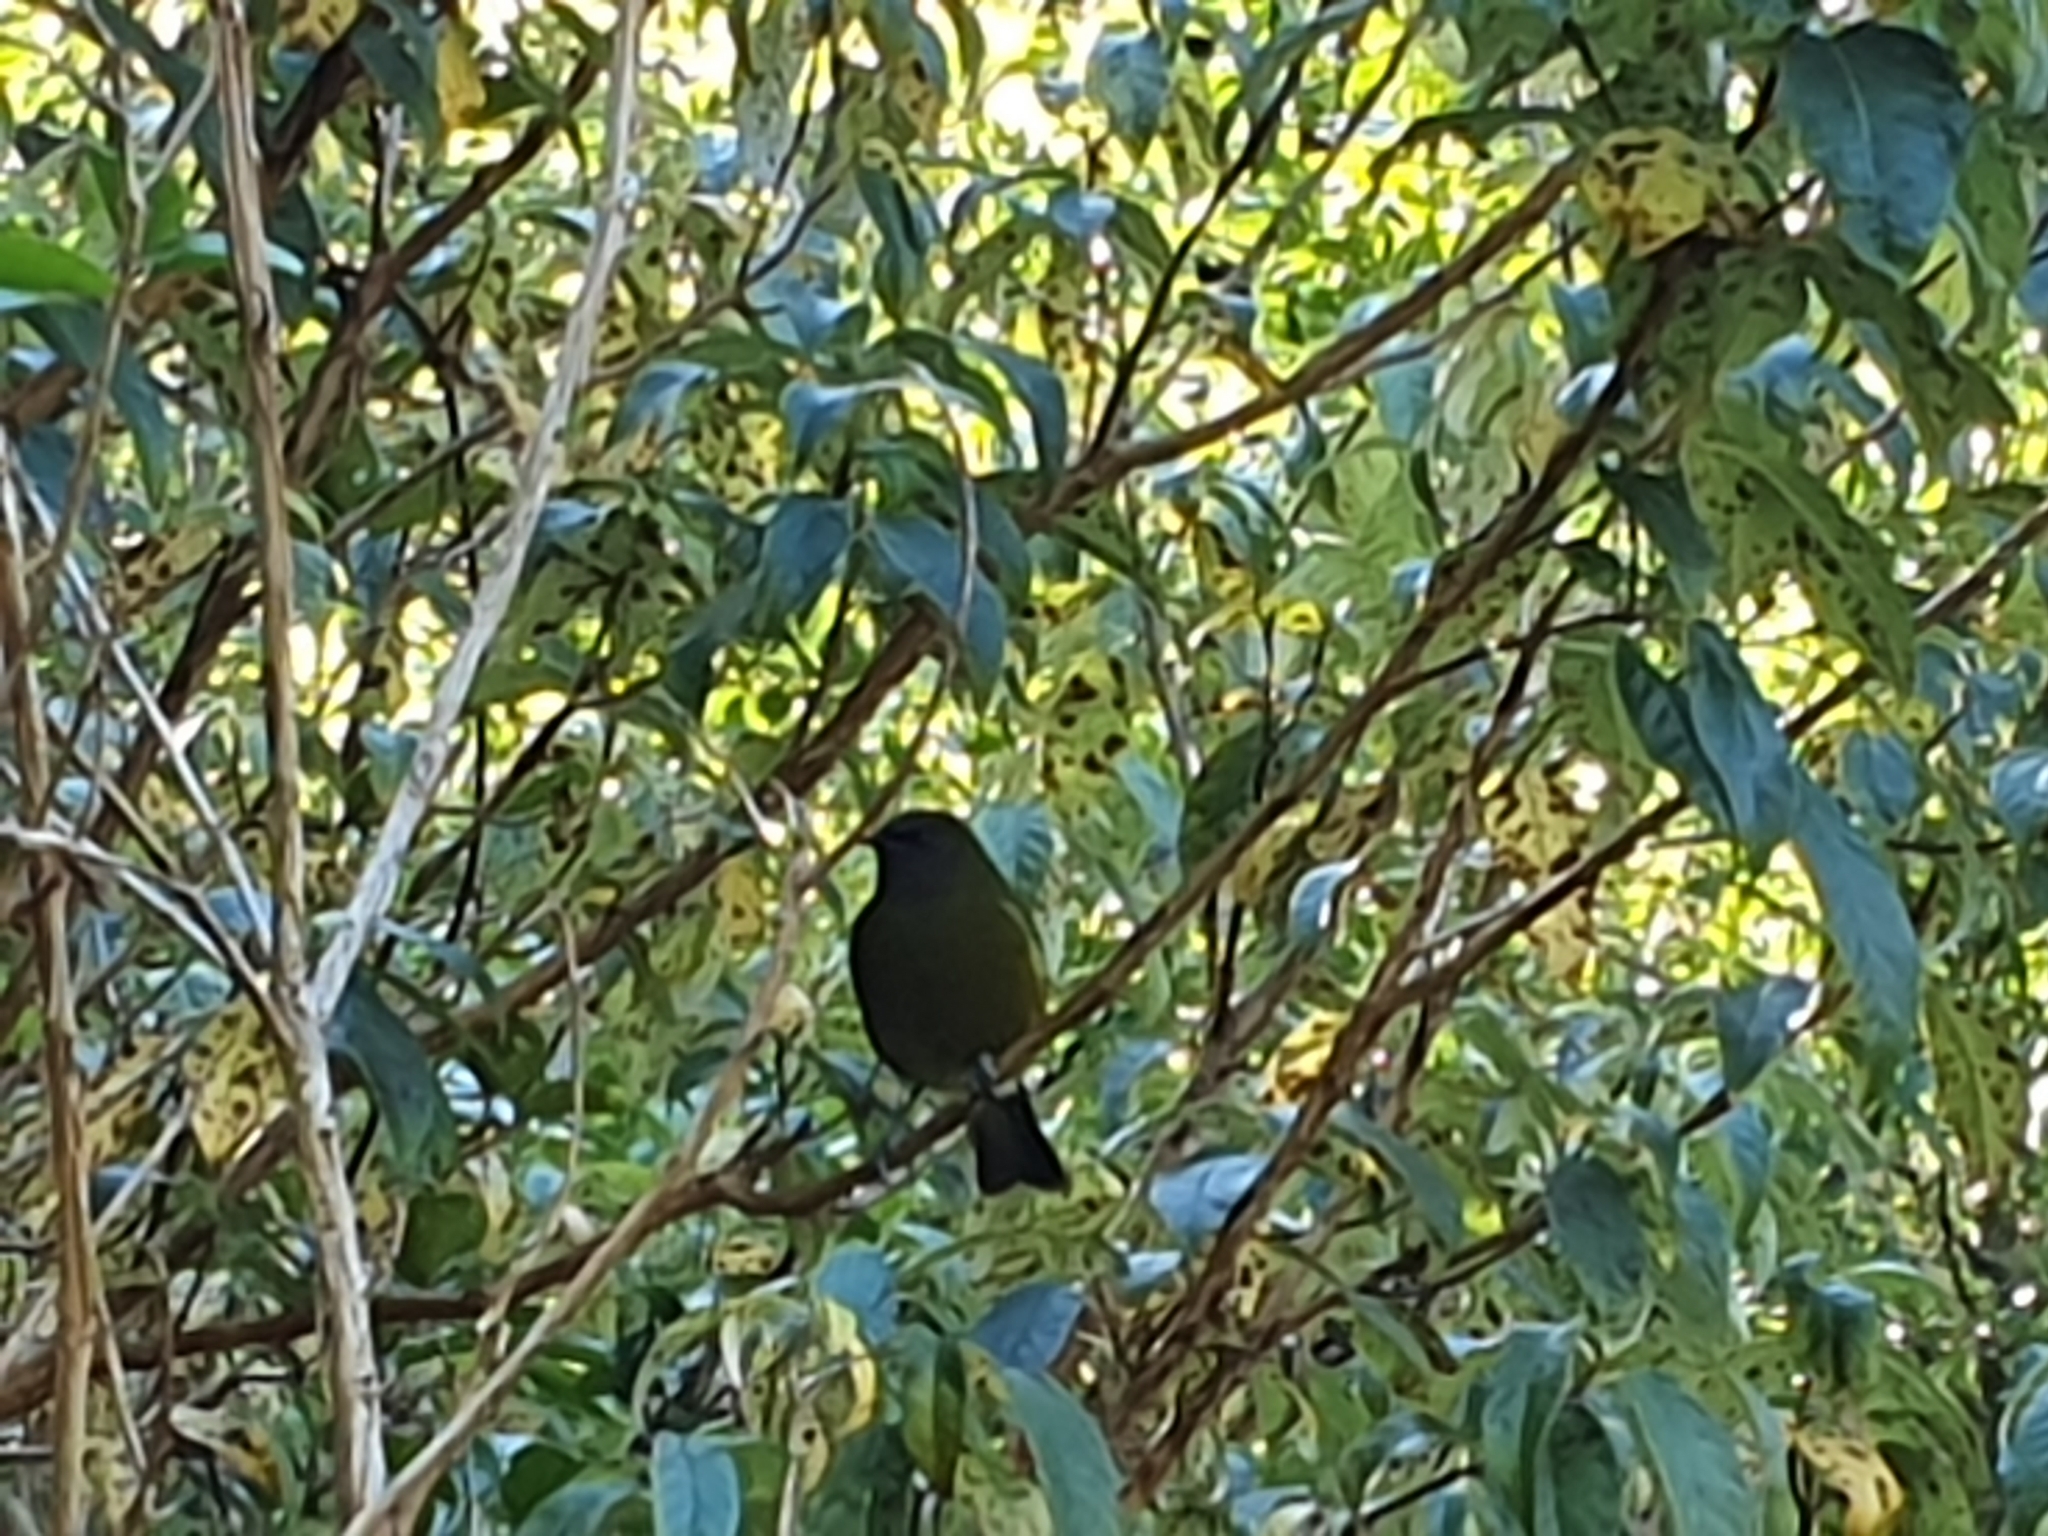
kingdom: Animalia
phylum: Chordata
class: Aves
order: Passeriformes
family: Meliphagidae
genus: Anthornis
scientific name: Anthornis melanura
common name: New zealand bellbird
